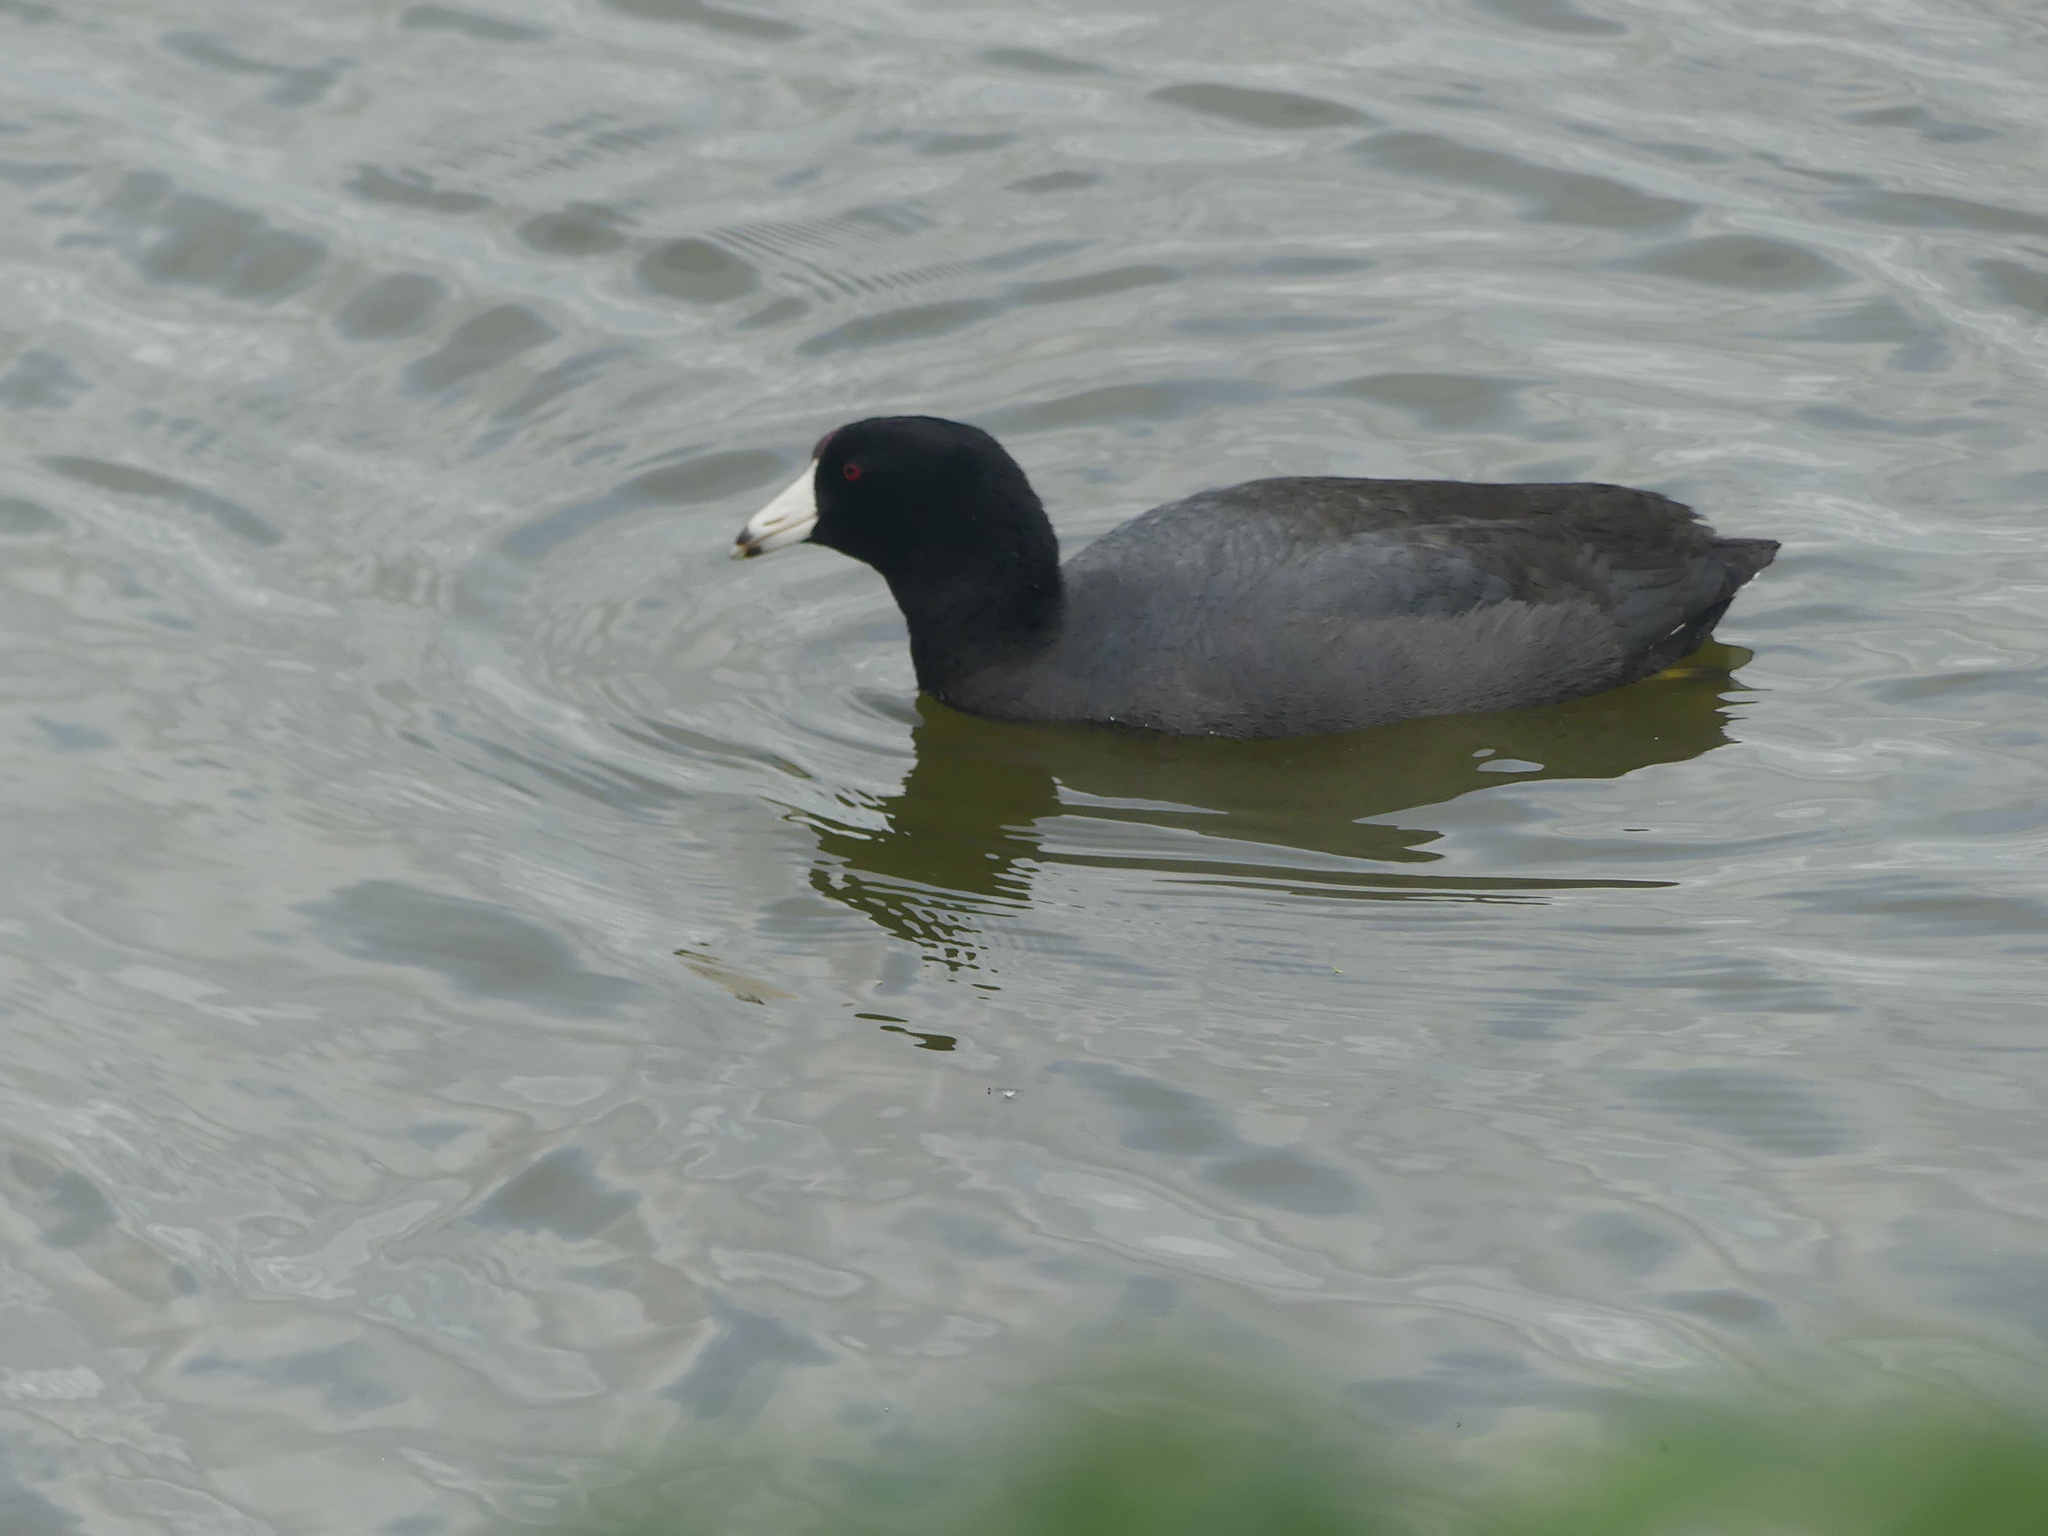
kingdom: Animalia
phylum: Chordata
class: Aves
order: Gruiformes
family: Rallidae
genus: Fulica
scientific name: Fulica americana
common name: American coot
